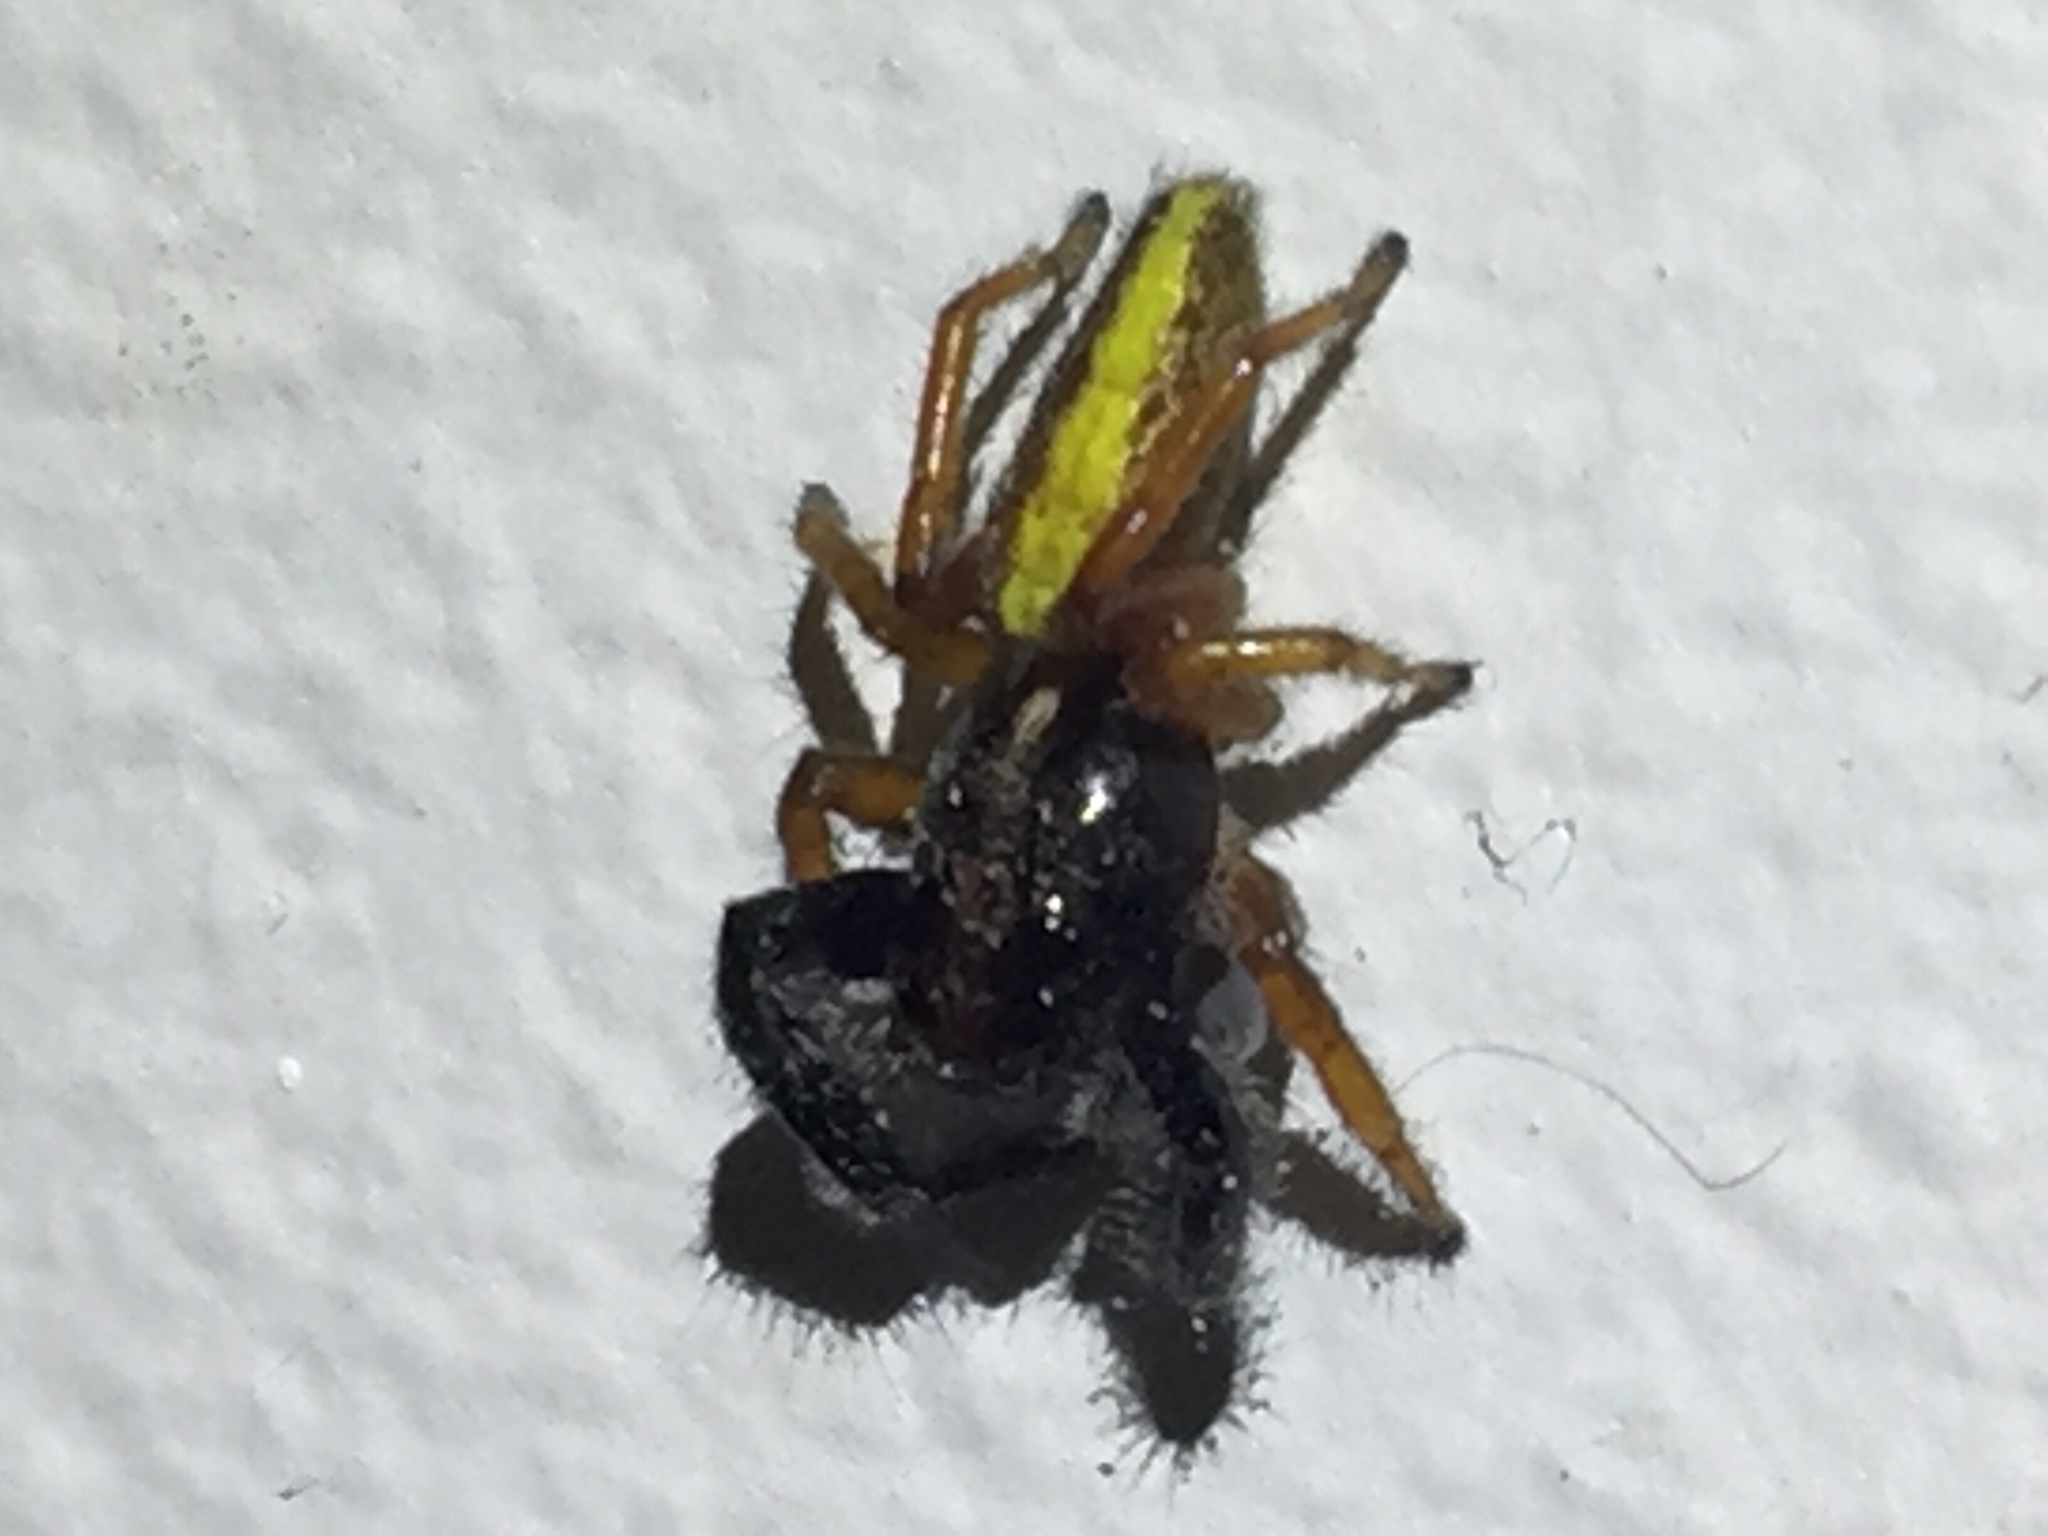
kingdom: Animalia
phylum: Arthropoda
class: Arachnida
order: Araneae
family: Salticidae
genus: Trite
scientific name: Trite planiceps
